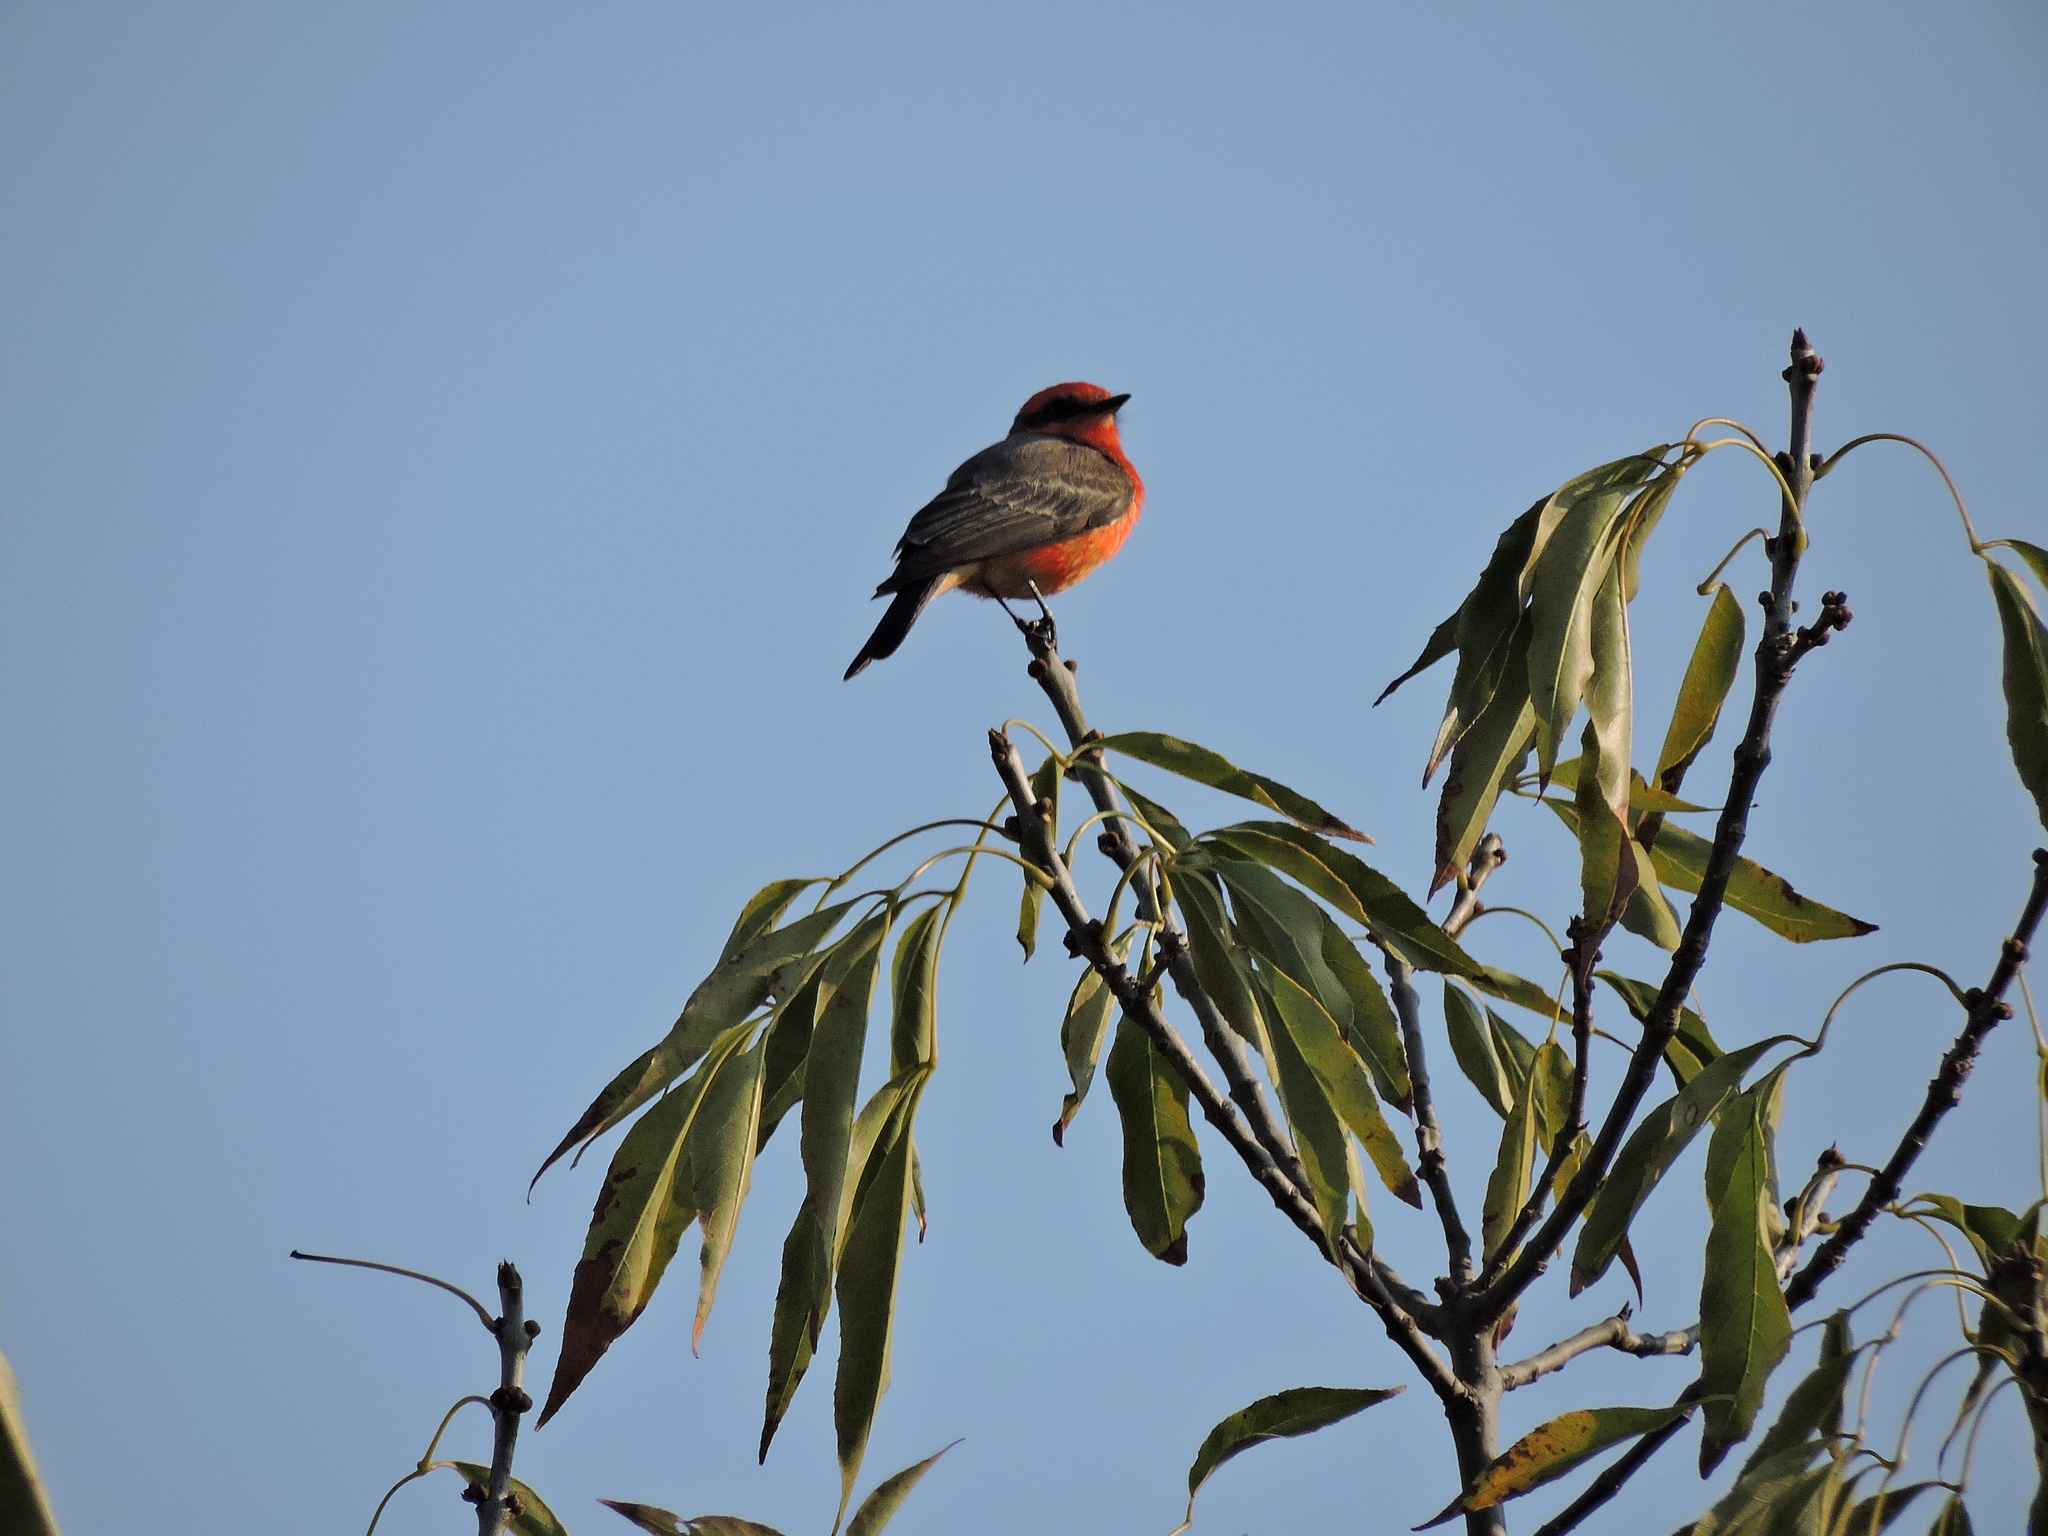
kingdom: Animalia
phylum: Chordata
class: Aves
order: Passeriformes
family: Tyrannidae
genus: Pyrocephalus
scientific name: Pyrocephalus rubinus
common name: Vermilion flycatcher
